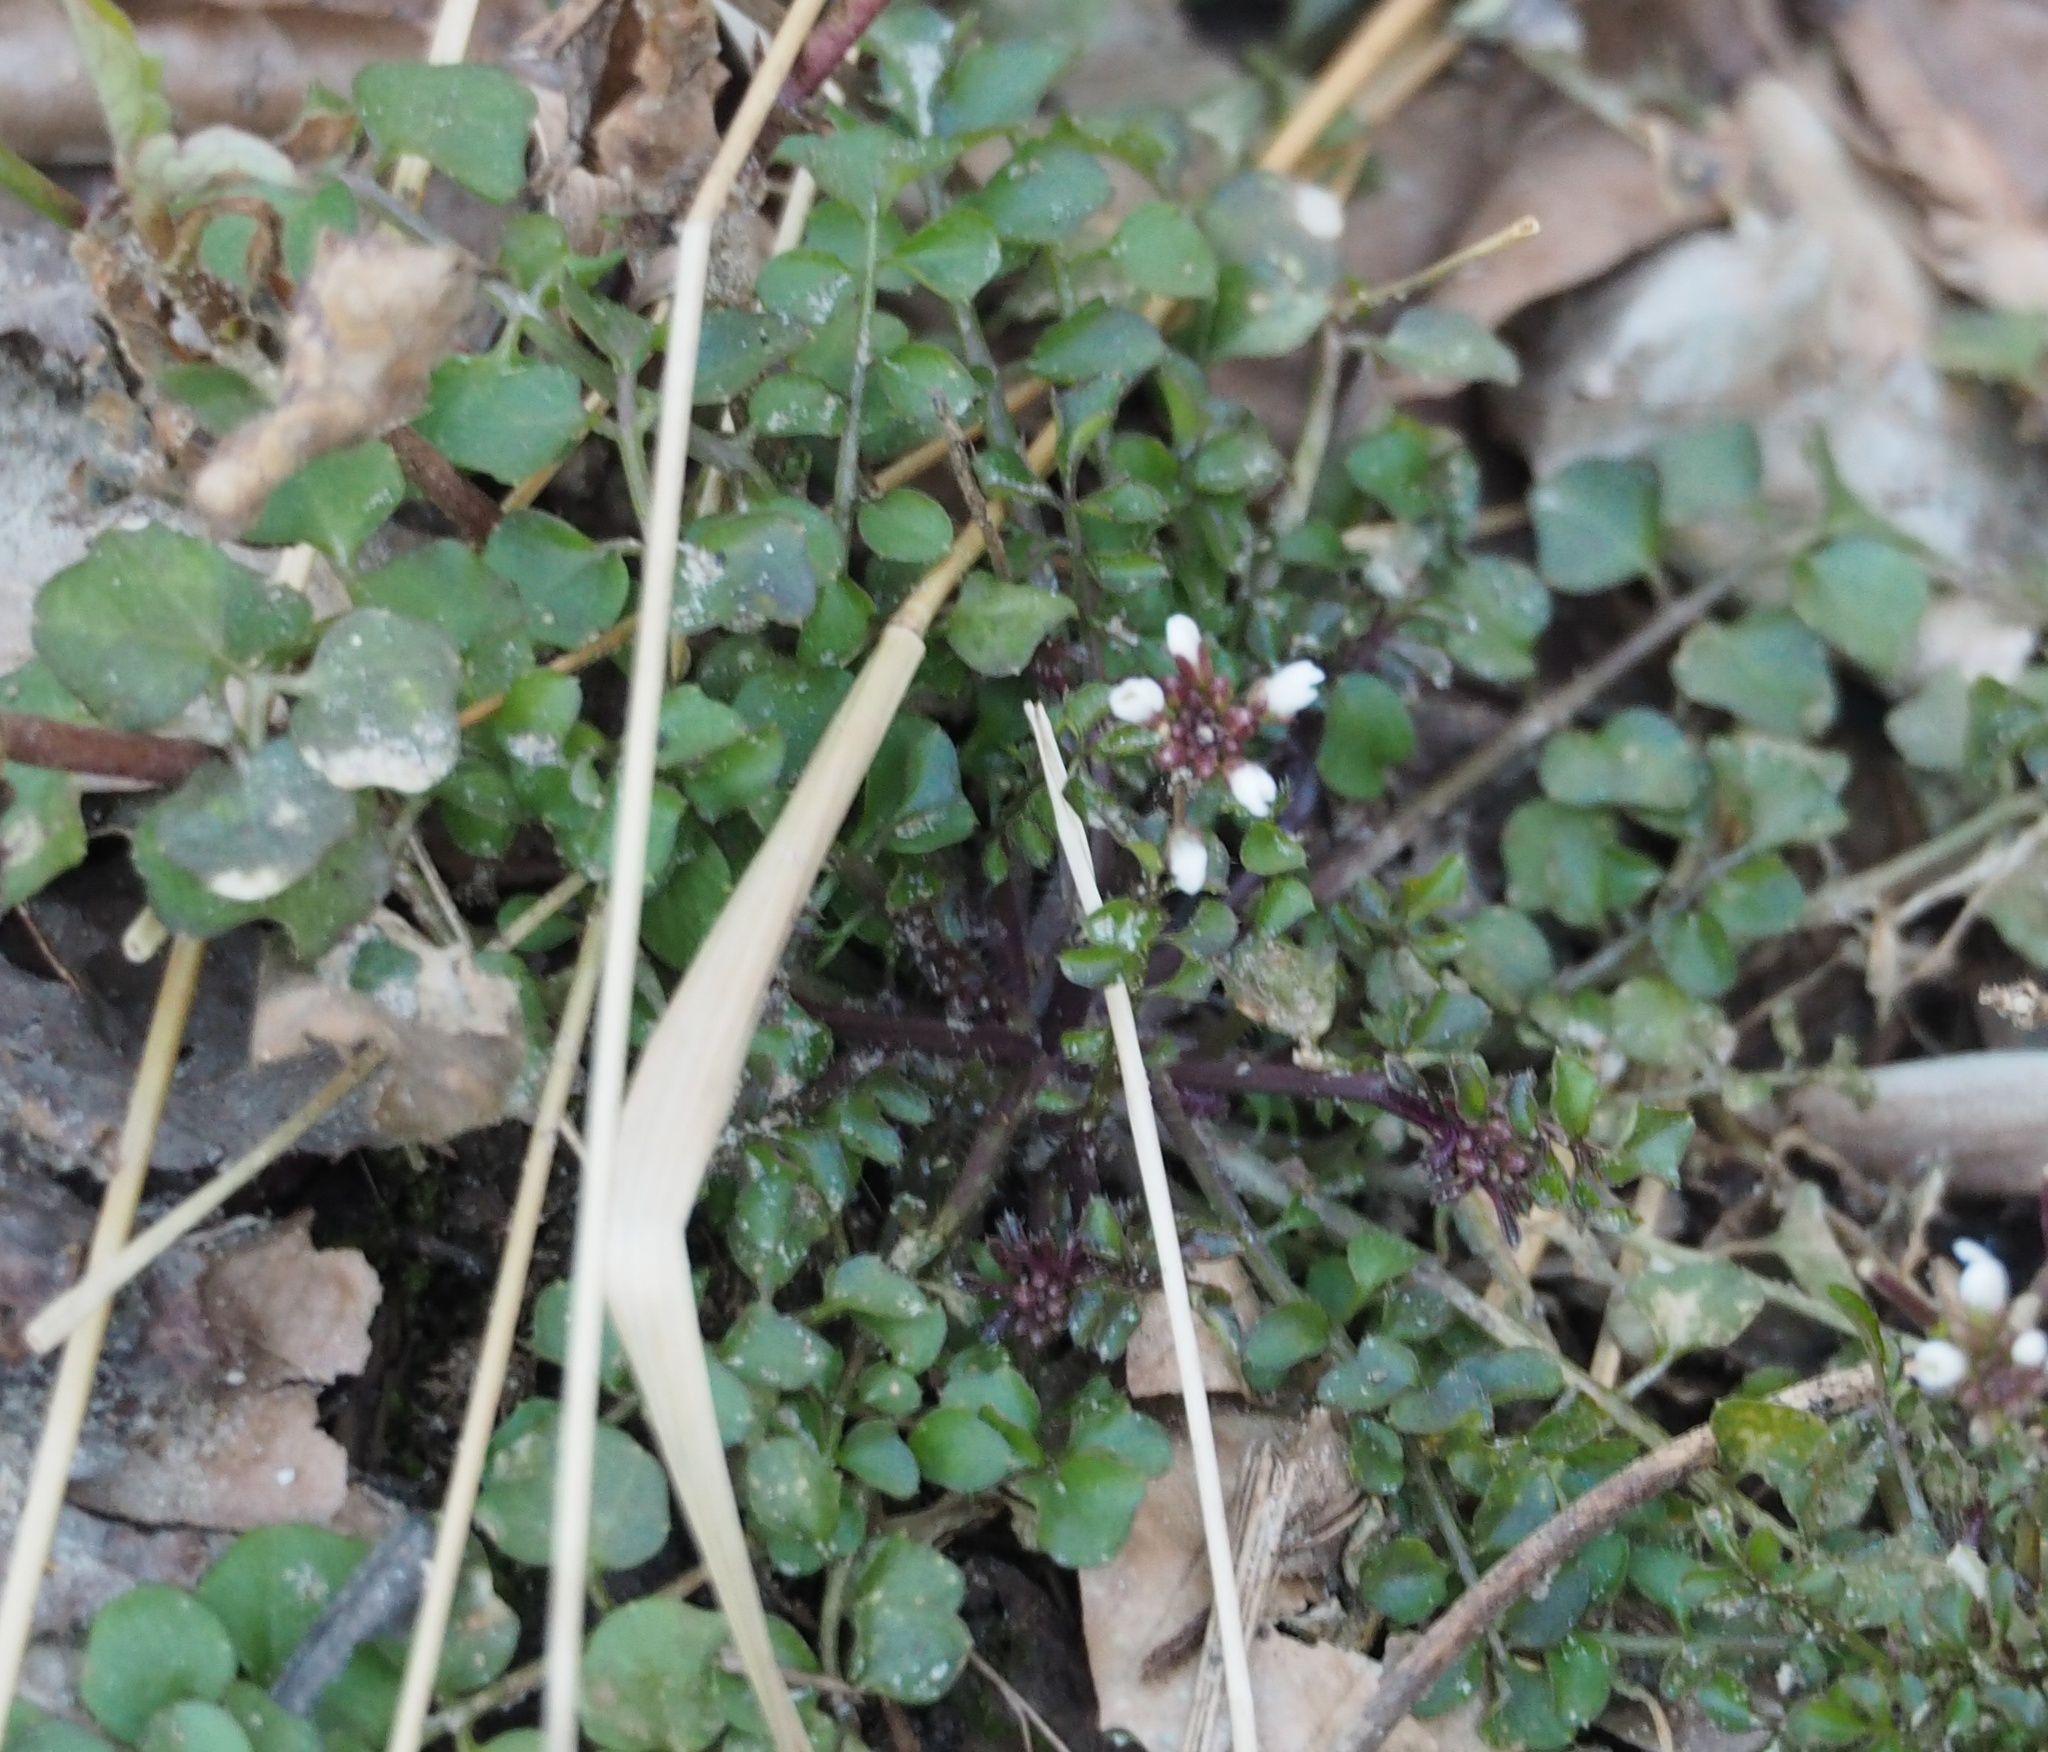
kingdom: Plantae
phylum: Tracheophyta
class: Magnoliopsida
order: Brassicales
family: Brassicaceae
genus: Cardamine
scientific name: Cardamine hirsuta
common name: Hairy bittercress
